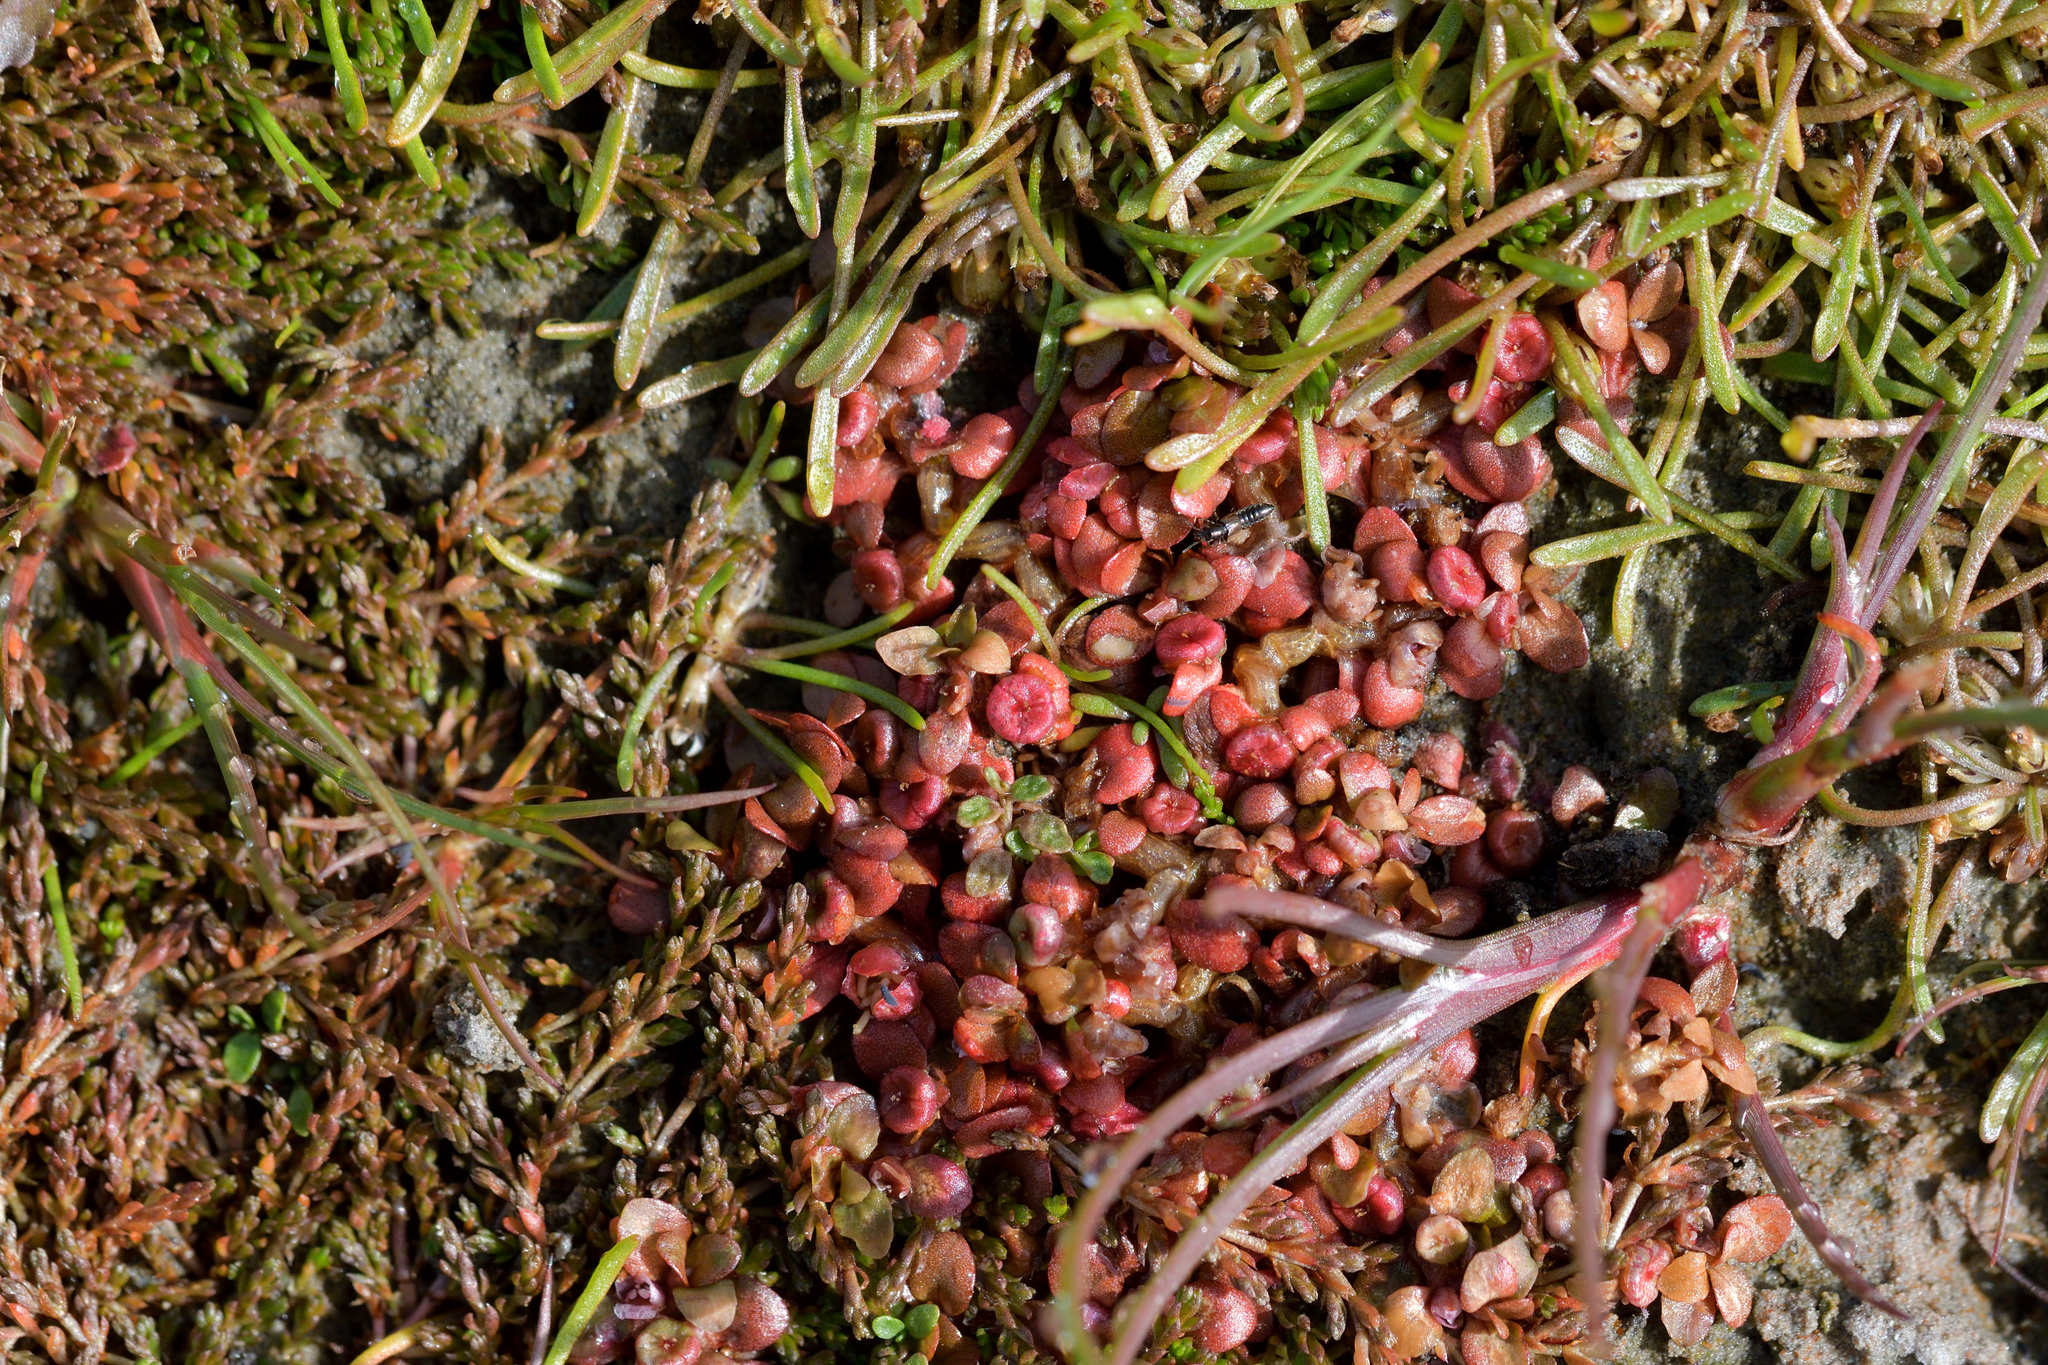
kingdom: Plantae
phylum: Tracheophyta
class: Magnoliopsida
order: Malpighiales
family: Elatinaceae
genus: Elatine
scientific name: Elatine gratioloides
